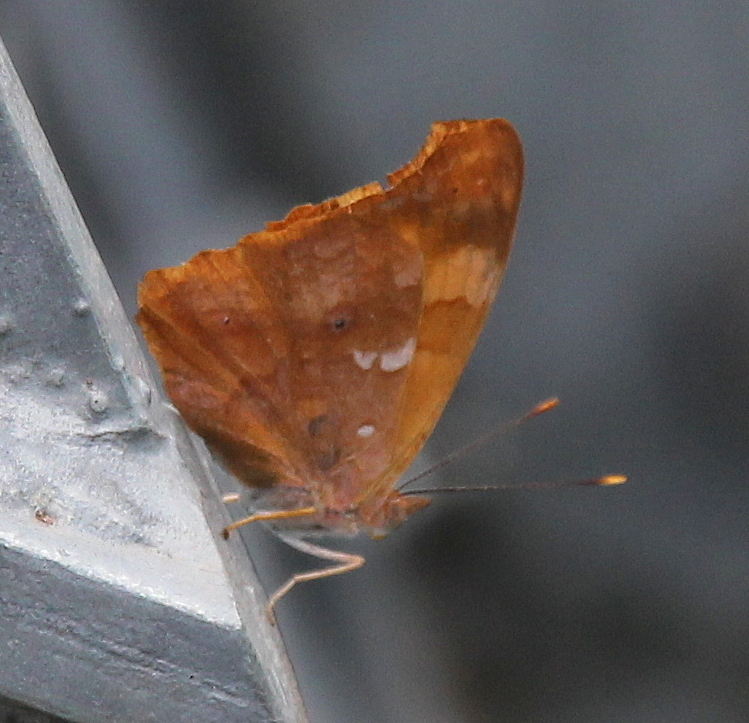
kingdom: Animalia
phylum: Arthropoda
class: Insecta
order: Lepidoptera
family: Nymphalidae
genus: Temenis
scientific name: Temenis laothoe
